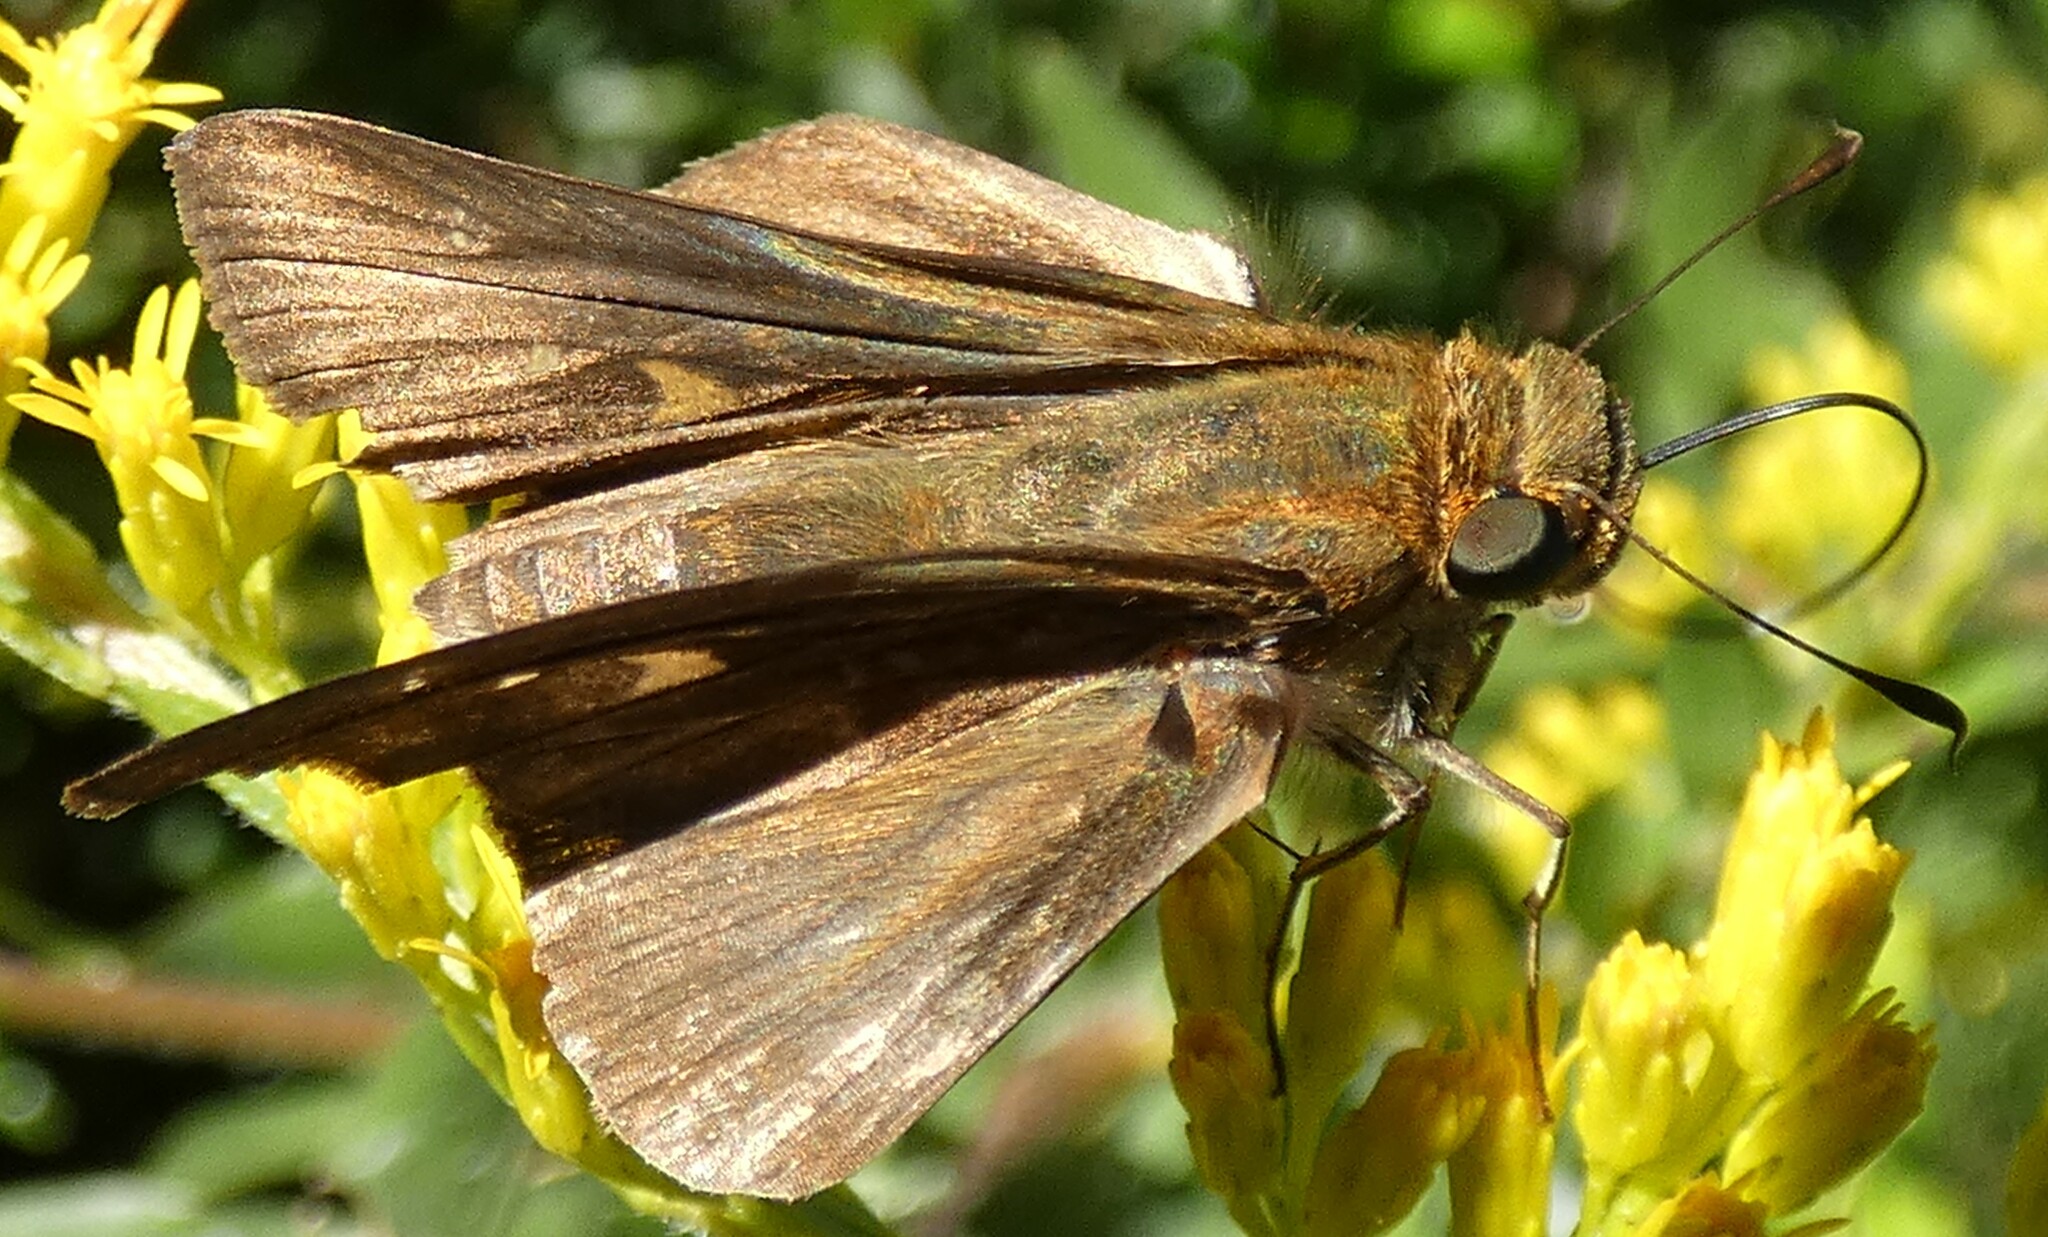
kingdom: Animalia
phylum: Arthropoda
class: Insecta
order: Lepidoptera
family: Hesperiidae
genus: Panoquina
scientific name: Panoquina ocola
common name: Ocola skipper
